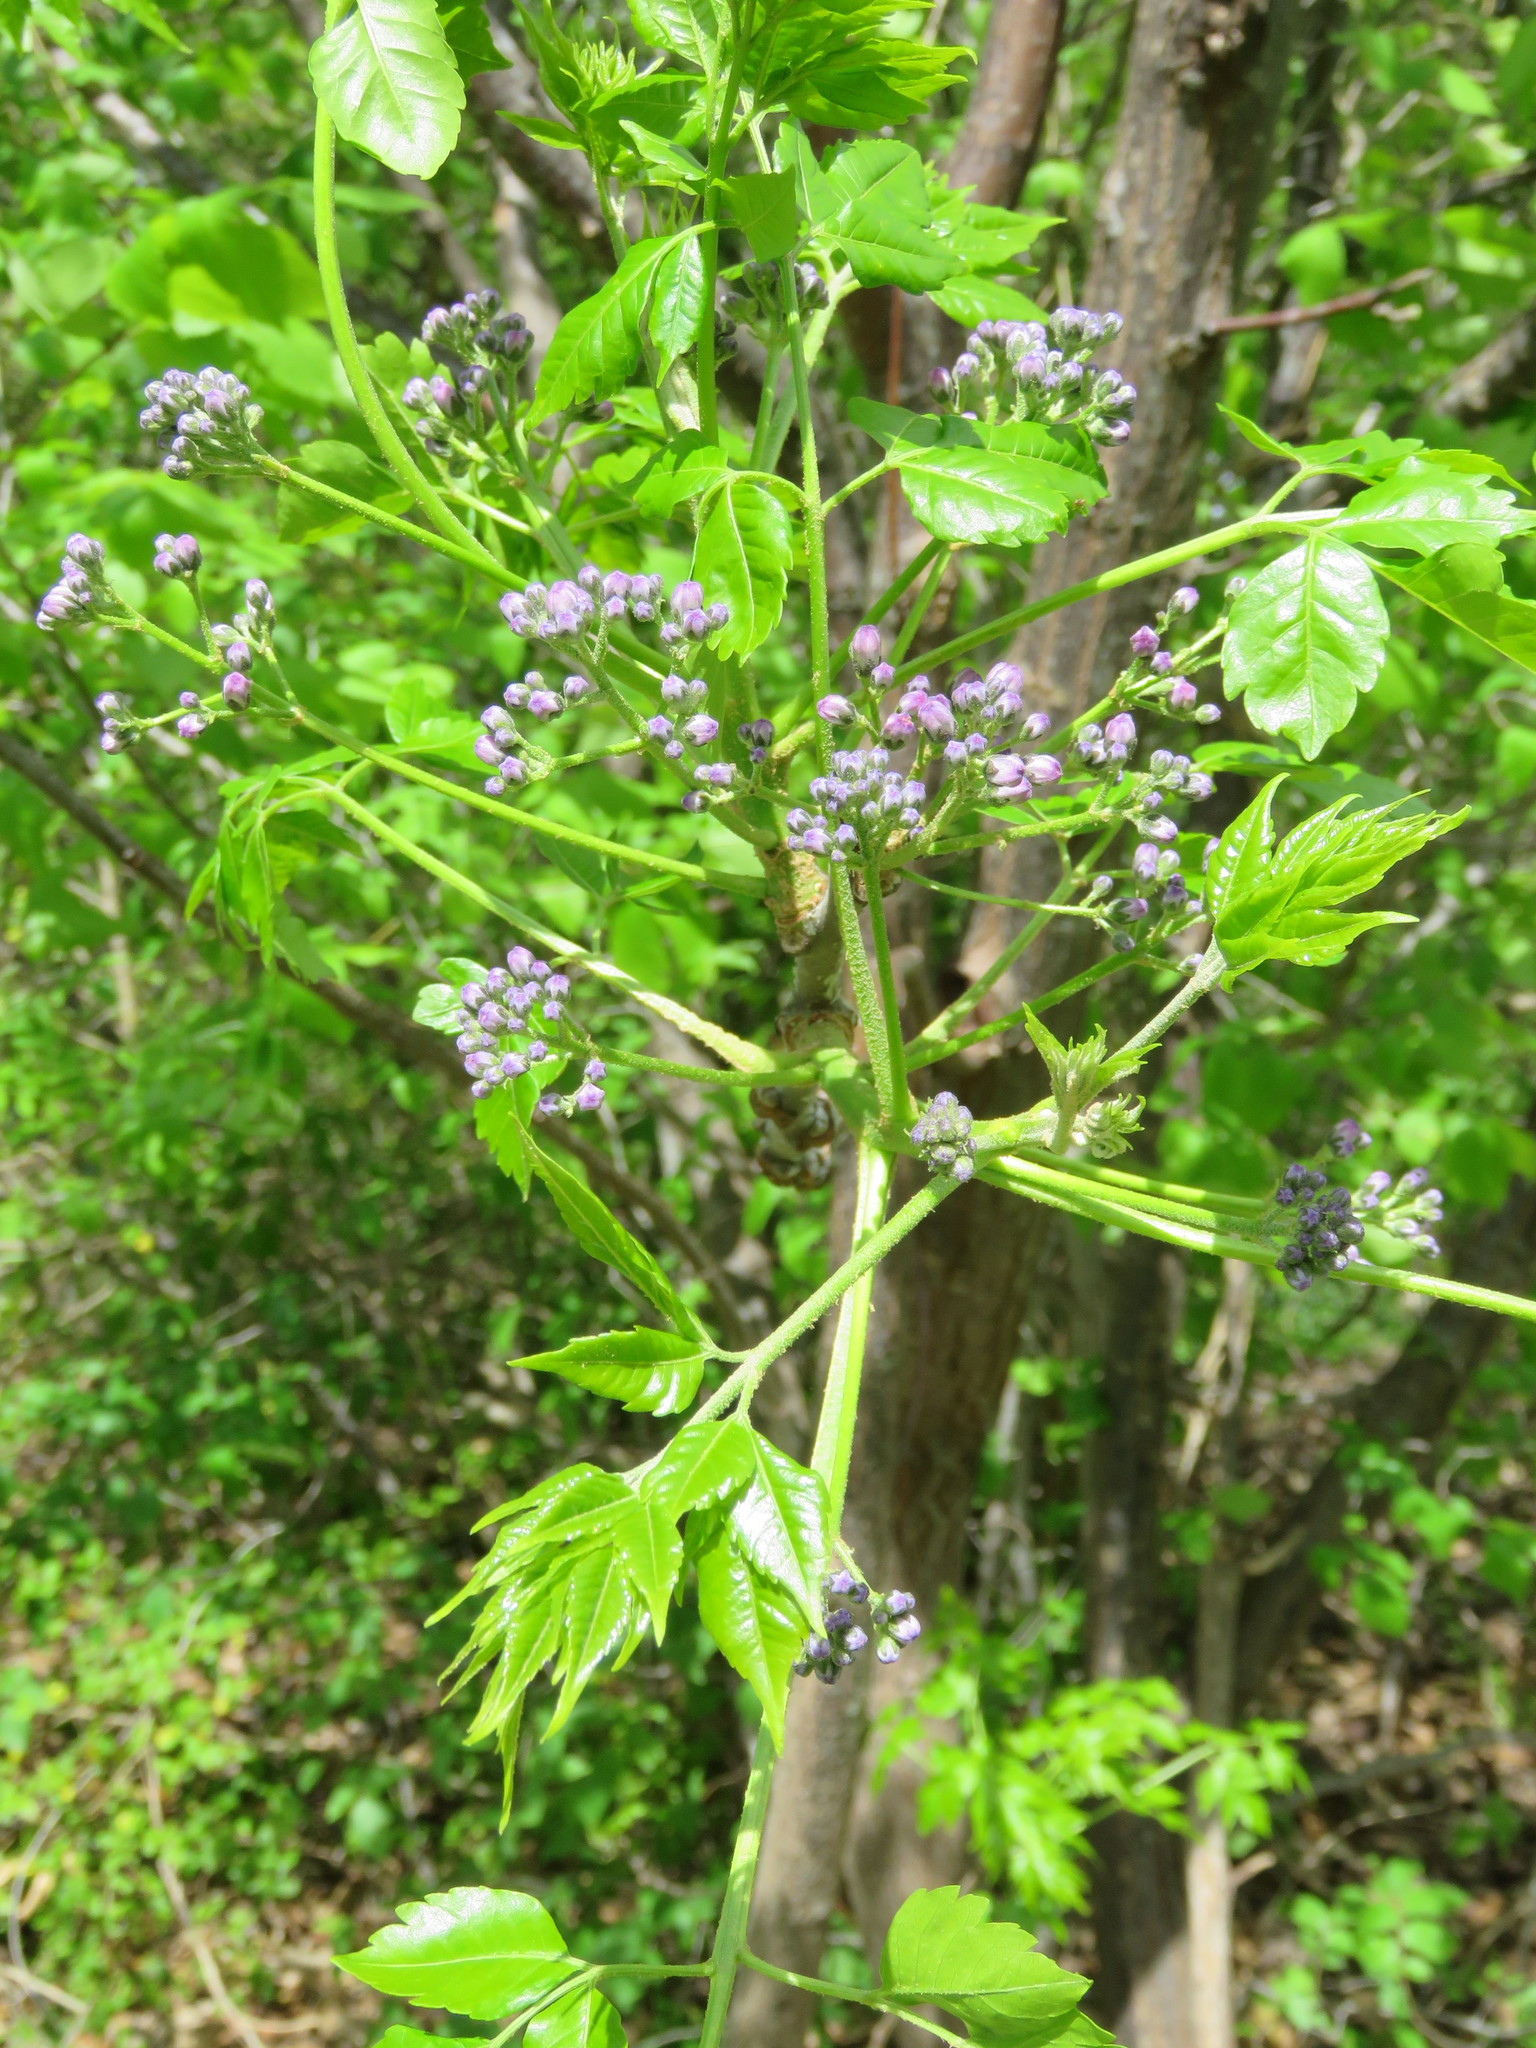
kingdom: Plantae
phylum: Tracheophyta
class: Magnoliopsida
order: Sapindales
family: Meliaceae
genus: Melia
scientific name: Melia azedarach
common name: Chinaberrytree
